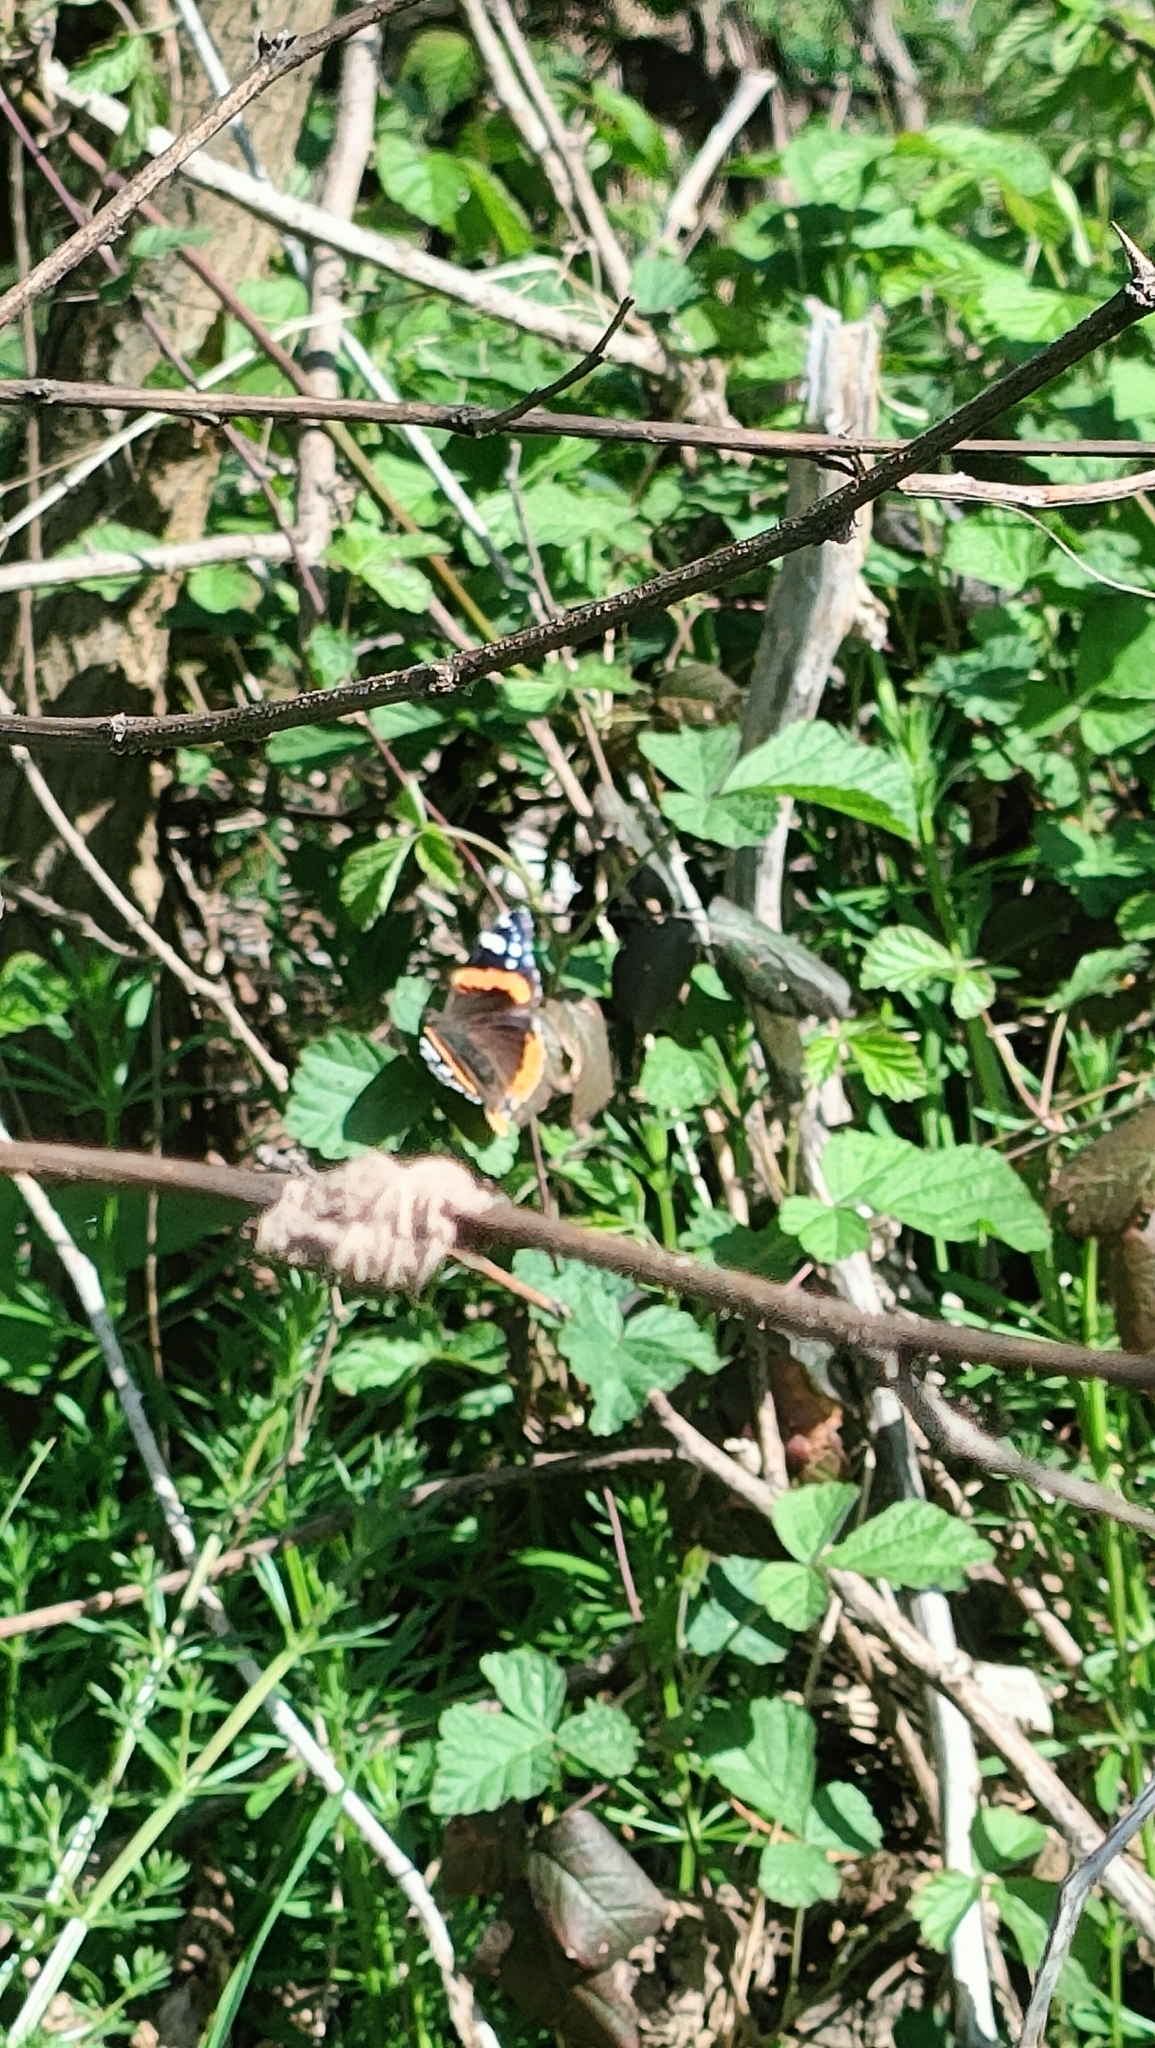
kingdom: Animalia
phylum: Arthropoda
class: Insecta
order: Lepidoptera
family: Nymphalidae
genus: Vanessa
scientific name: Vanessa atalanta
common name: Red admiral
